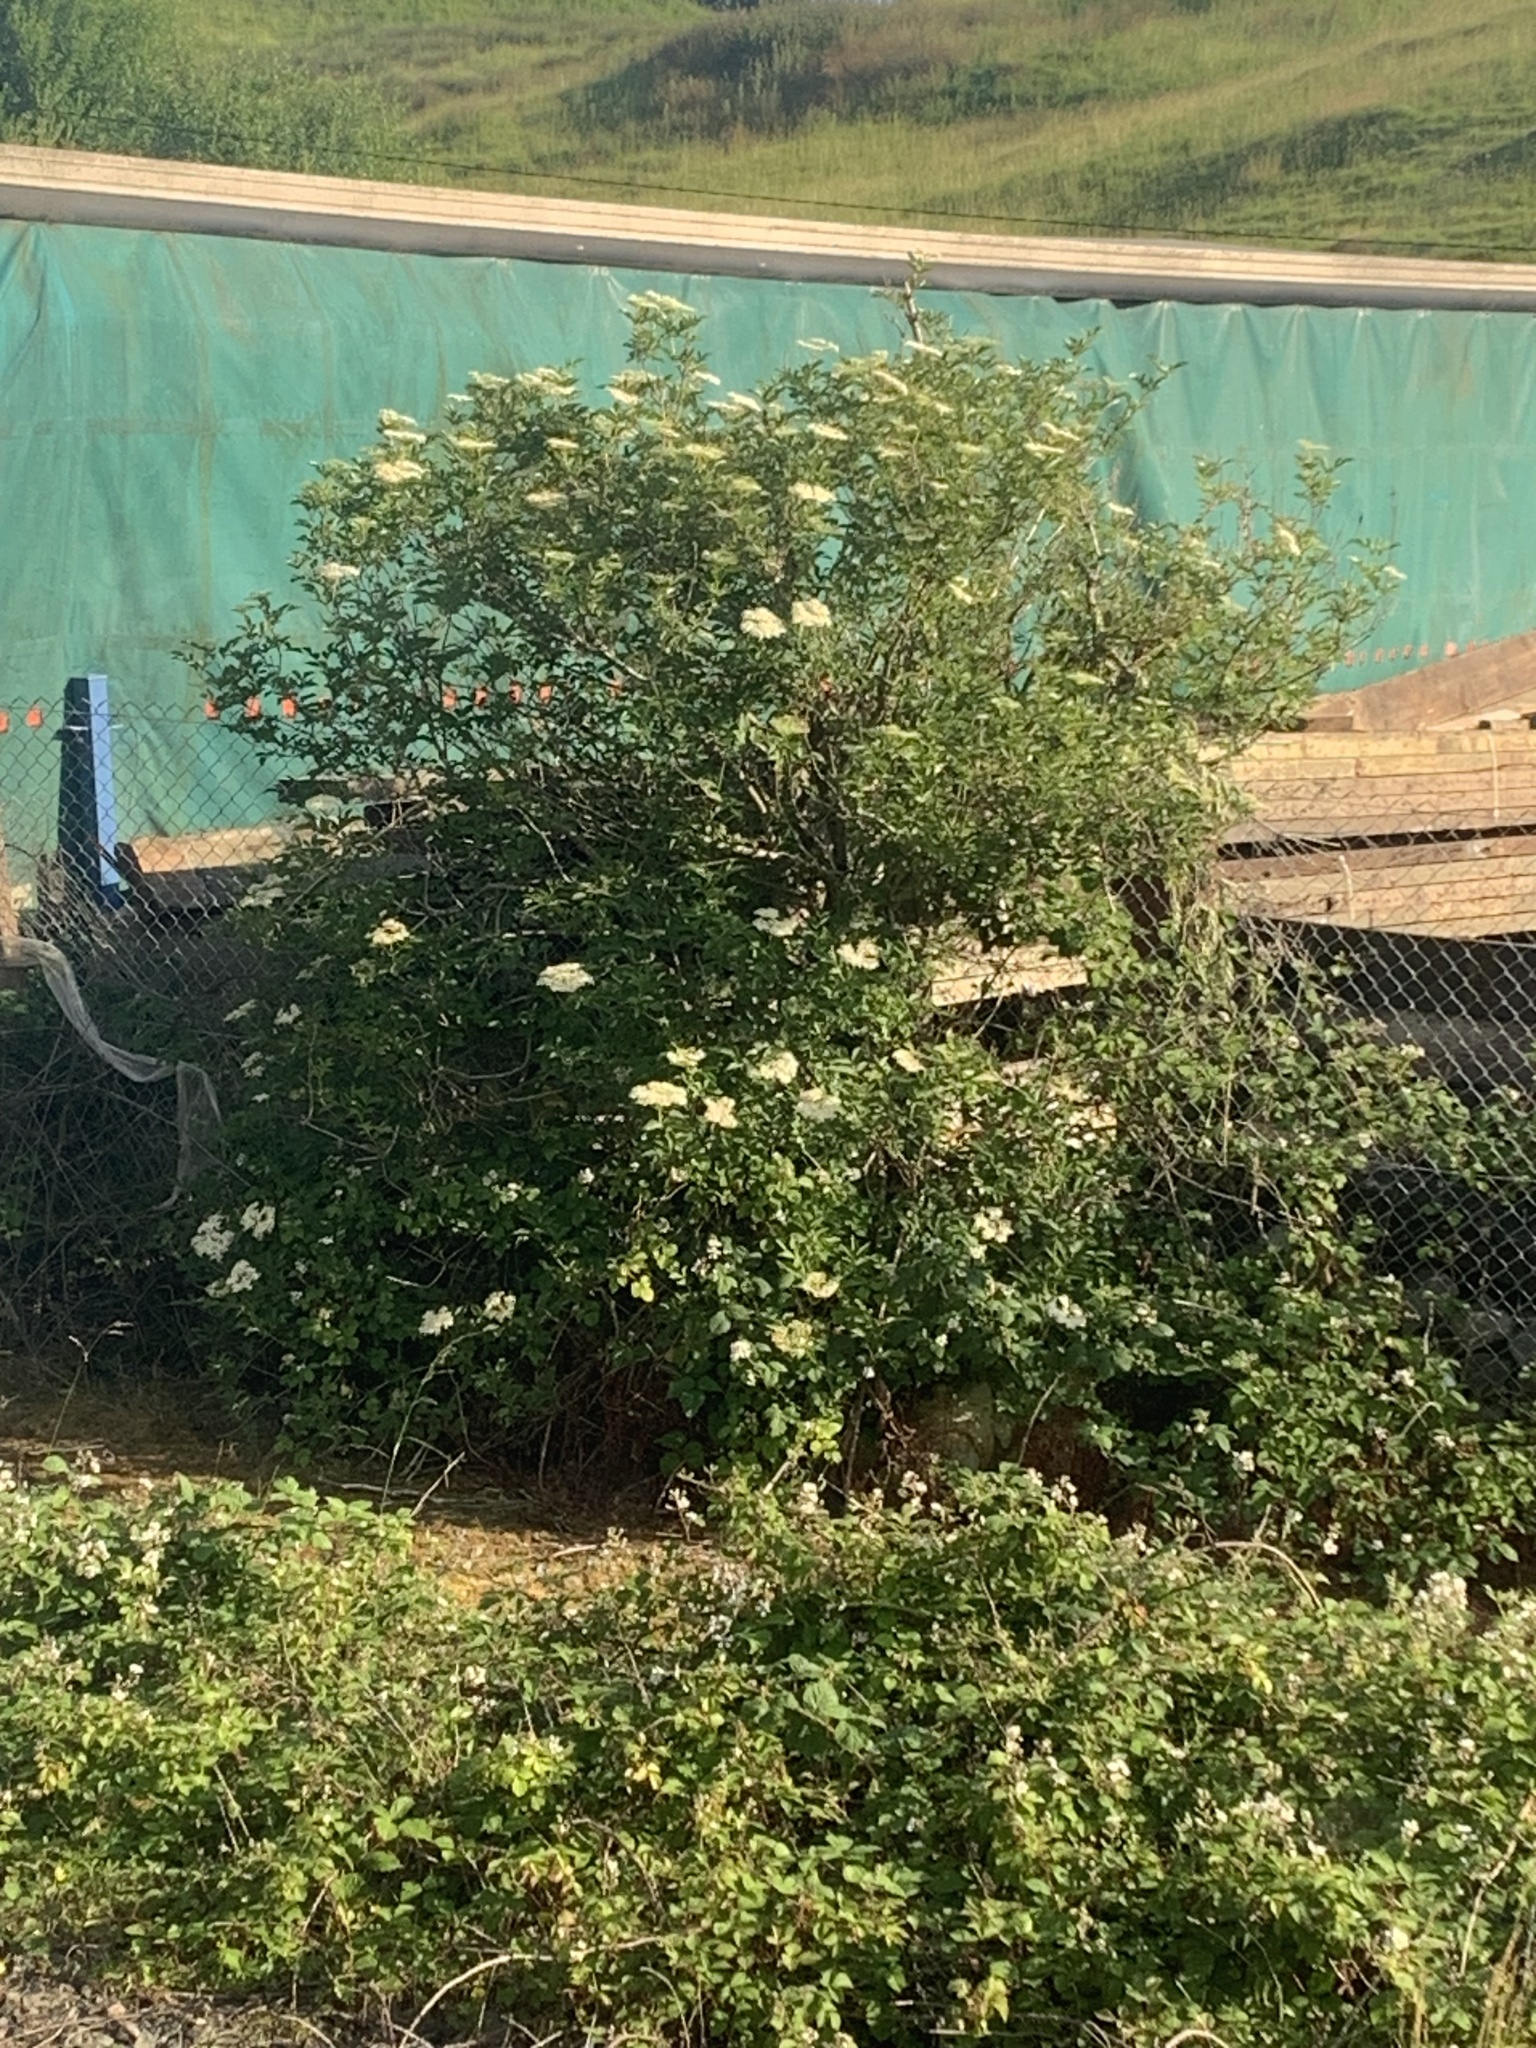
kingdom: Plantae
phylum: Tracheophyta
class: Magnoliopsida
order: Dipsacales
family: Viburnaceae
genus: Sambucus
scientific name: Sambucus nigra
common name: Elder
